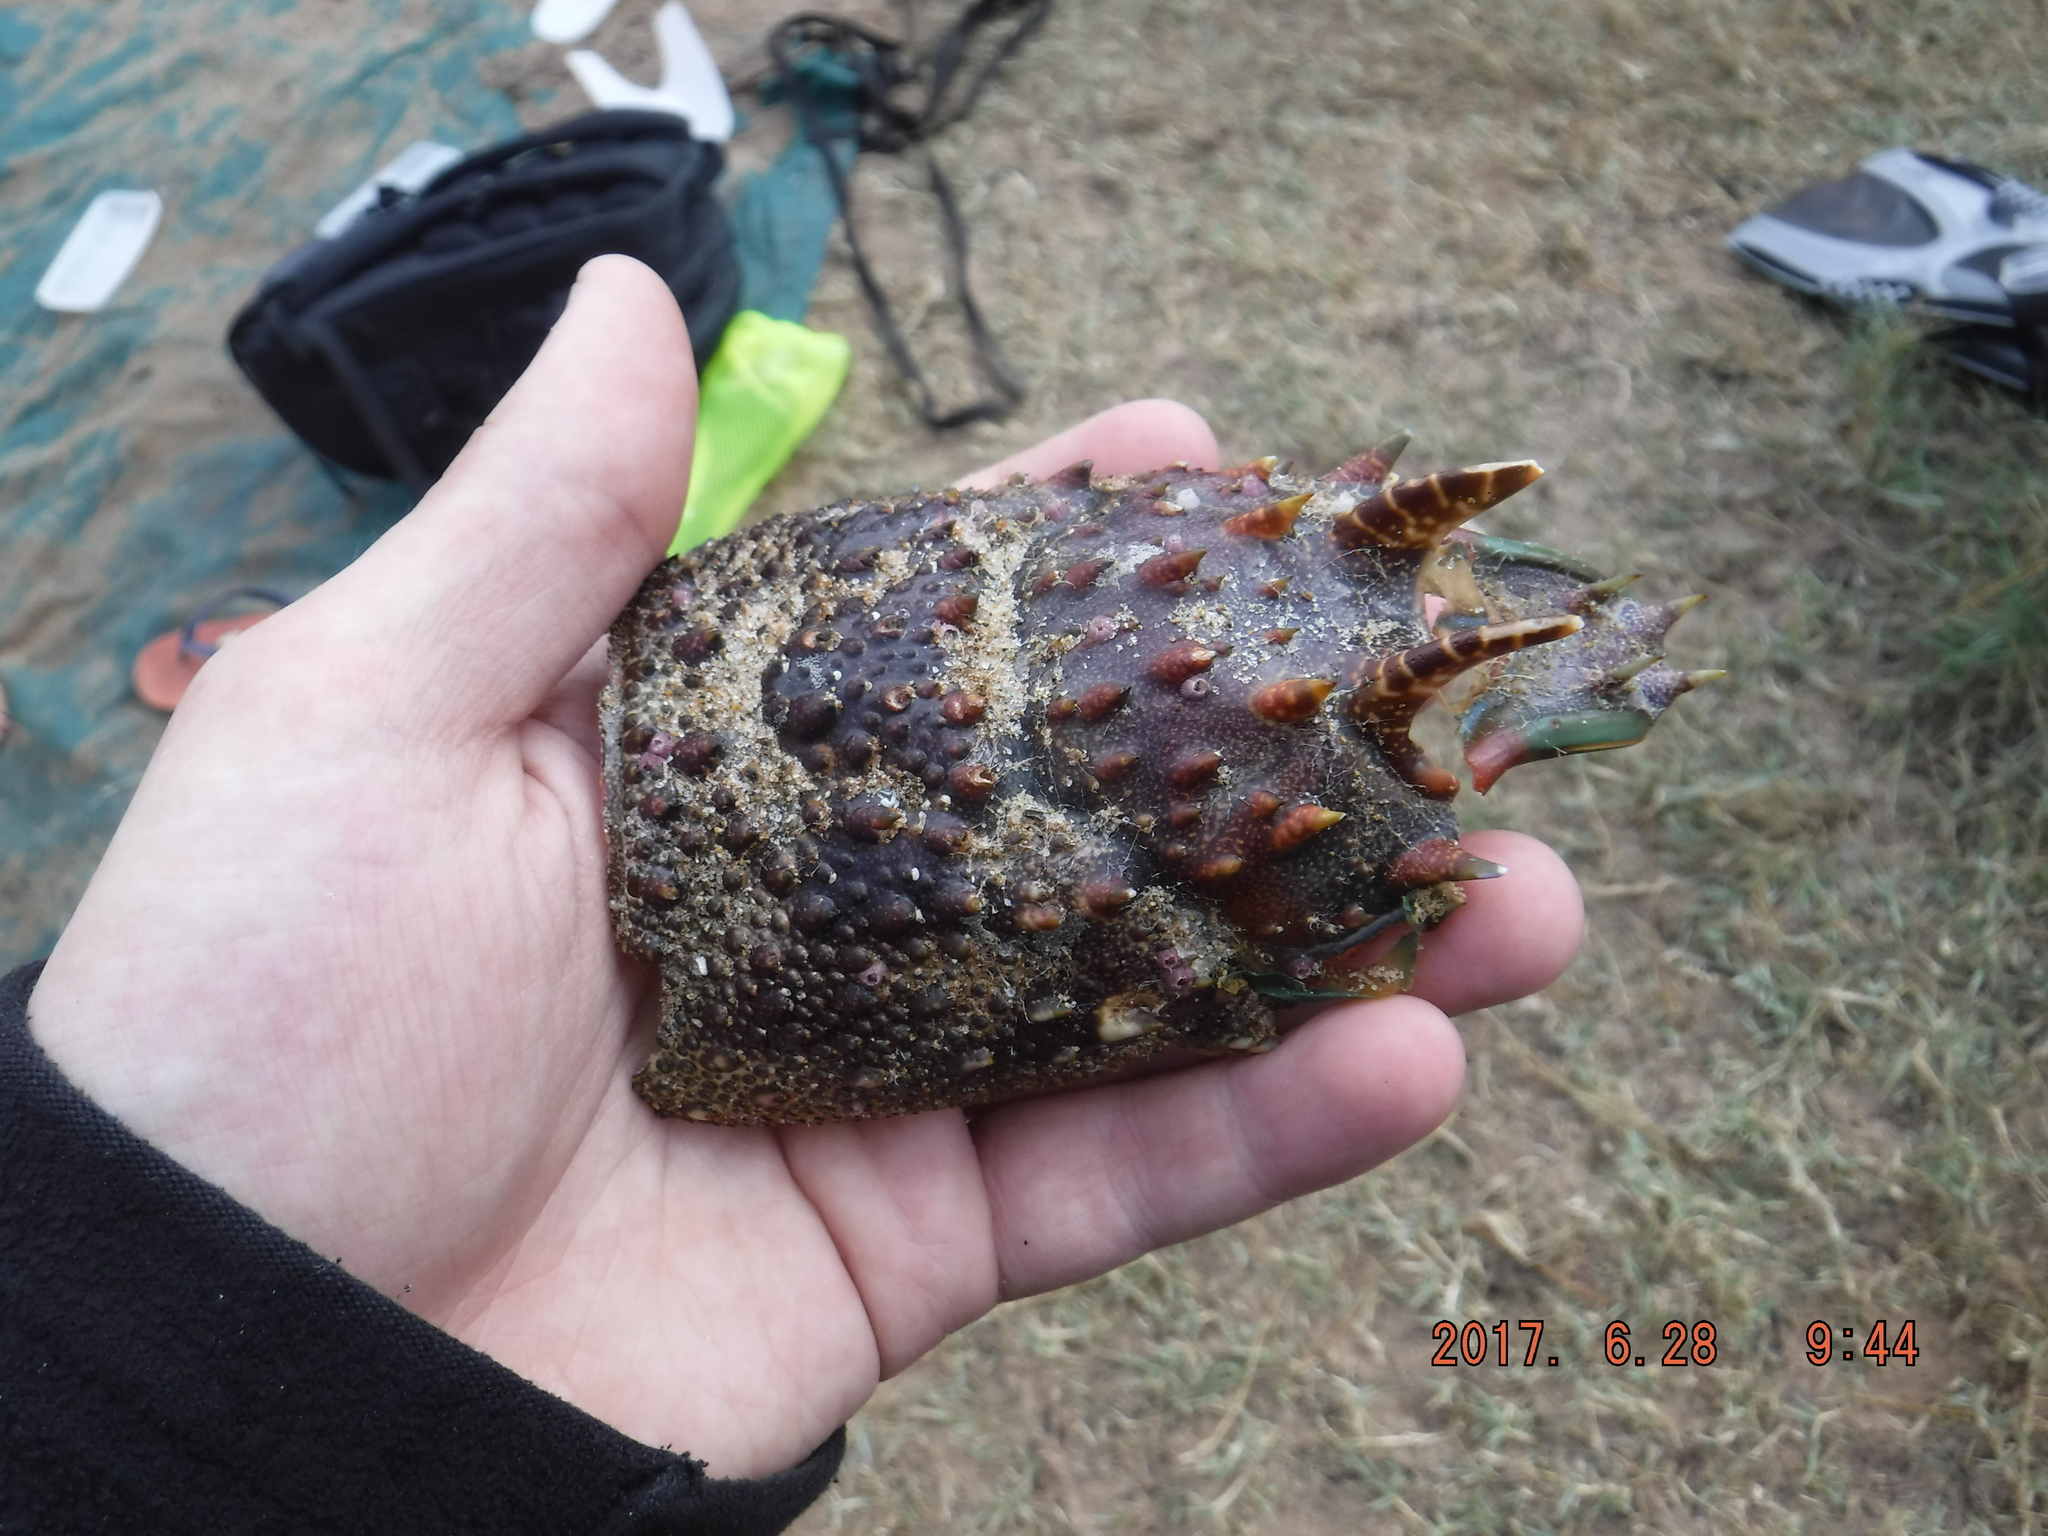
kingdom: Animalia
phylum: Arthropoda
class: Malacostraca
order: Decapoda
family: Palinuridae
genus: Panulirus
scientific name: Panulirus homarus
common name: Scalloped spiny lobster
